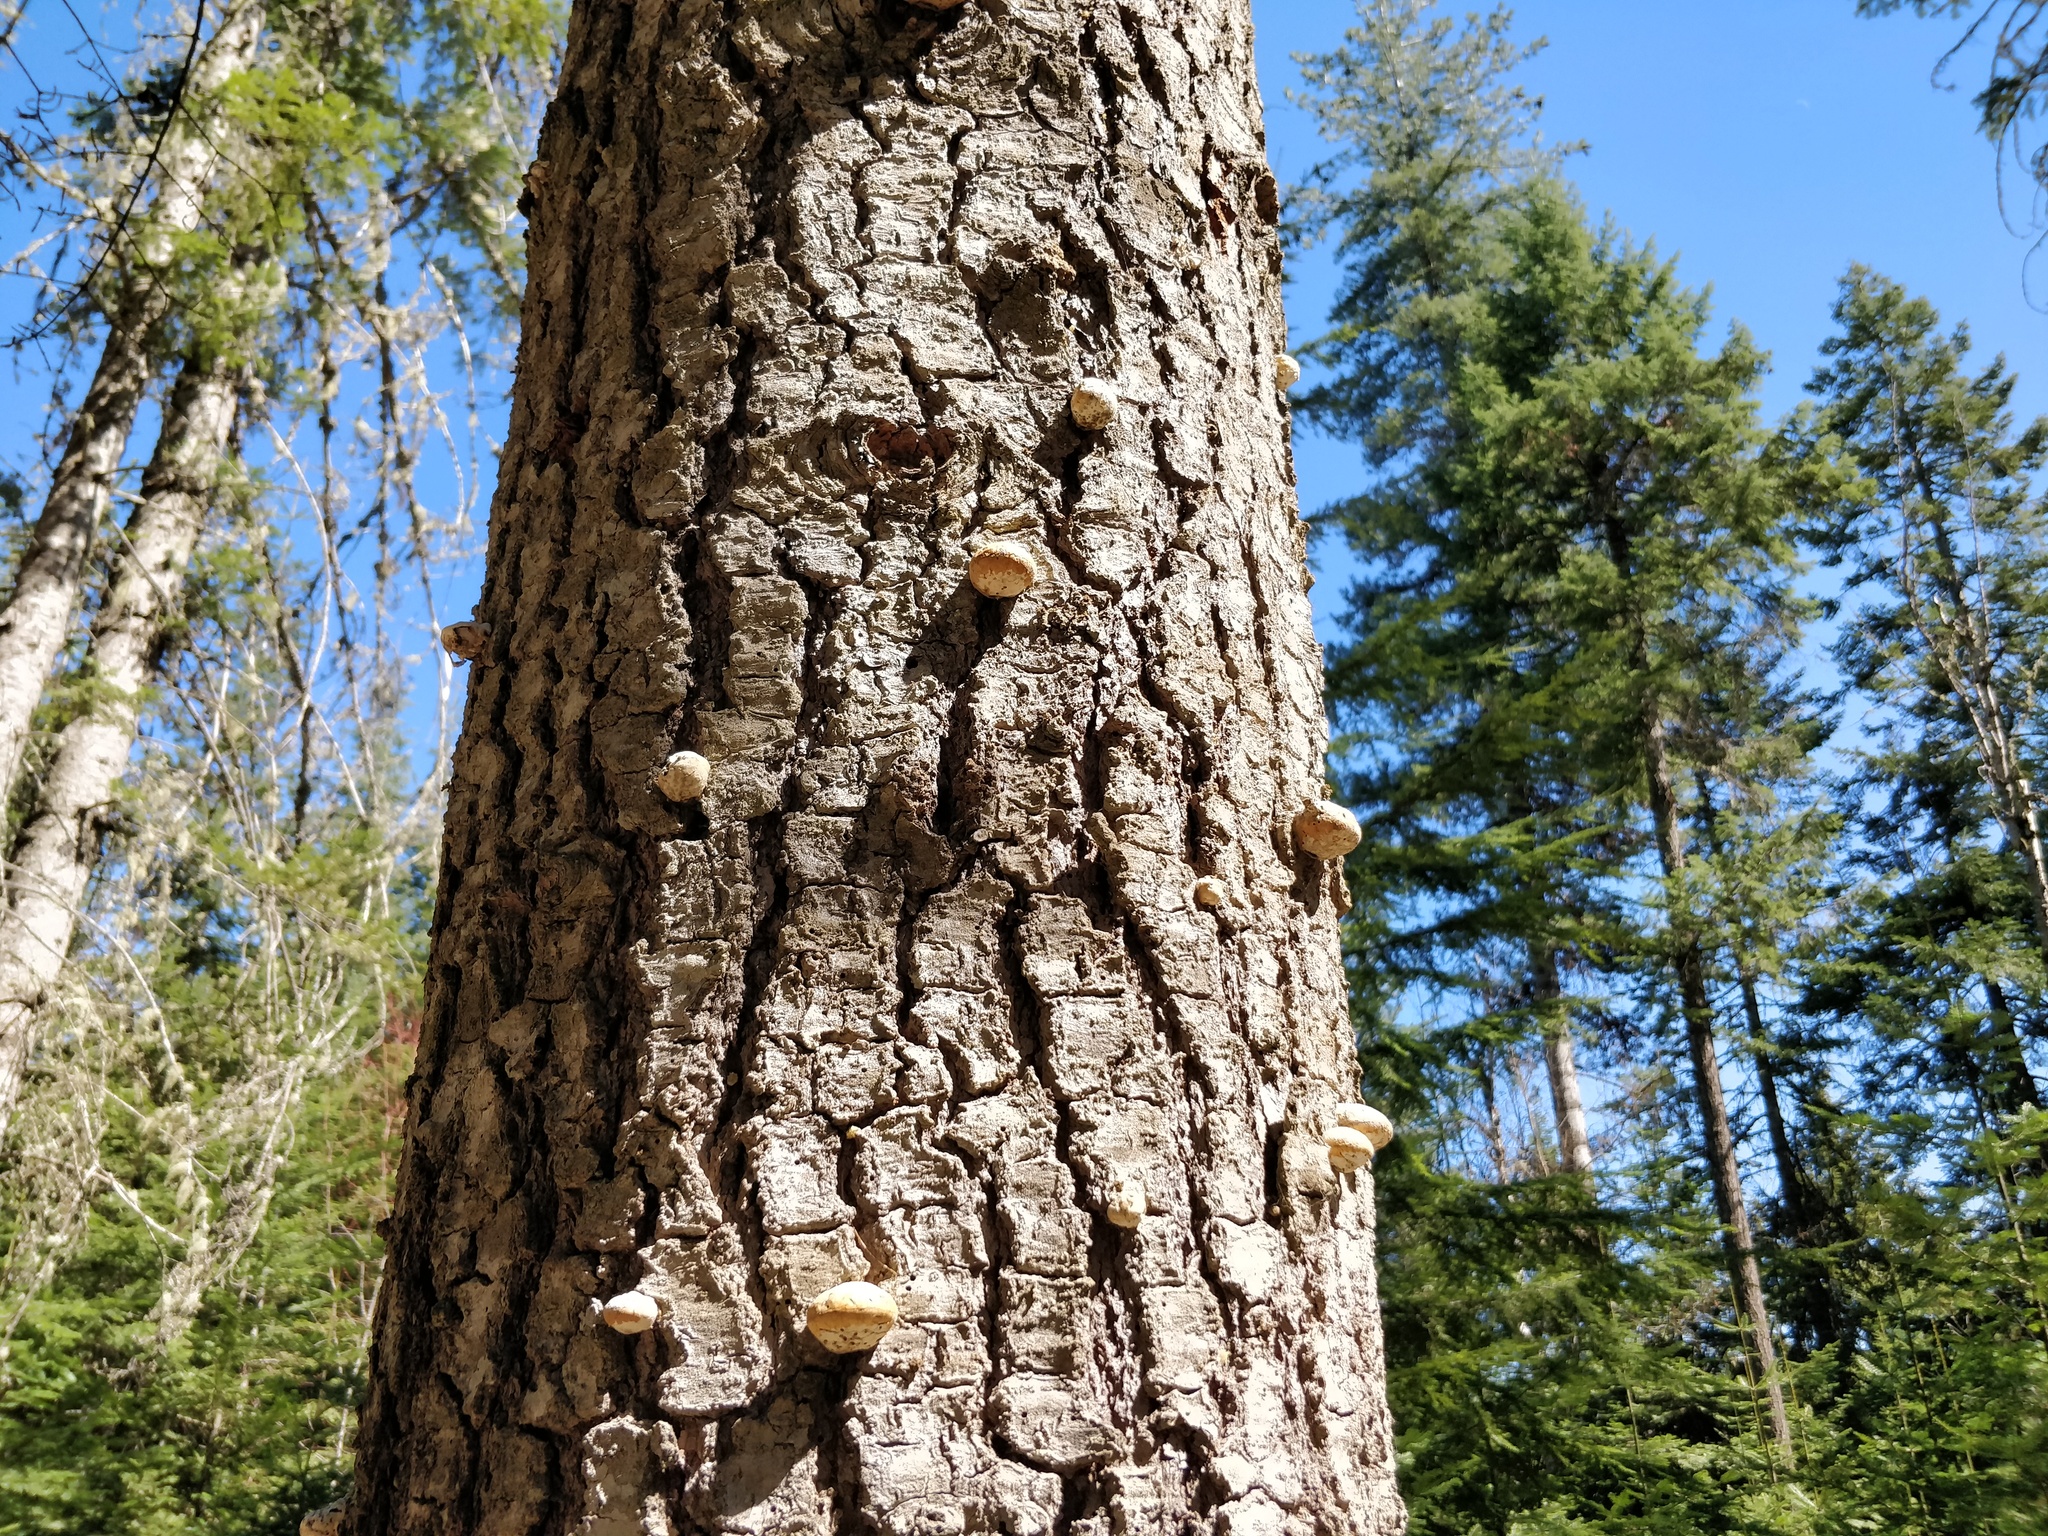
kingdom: Fungi
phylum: Basidiomycota
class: Agaricomycetes
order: Polyporales
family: Polyporaceae
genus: Cryptoporus
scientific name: Cryptoporus volvatus
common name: Veiled polypore
